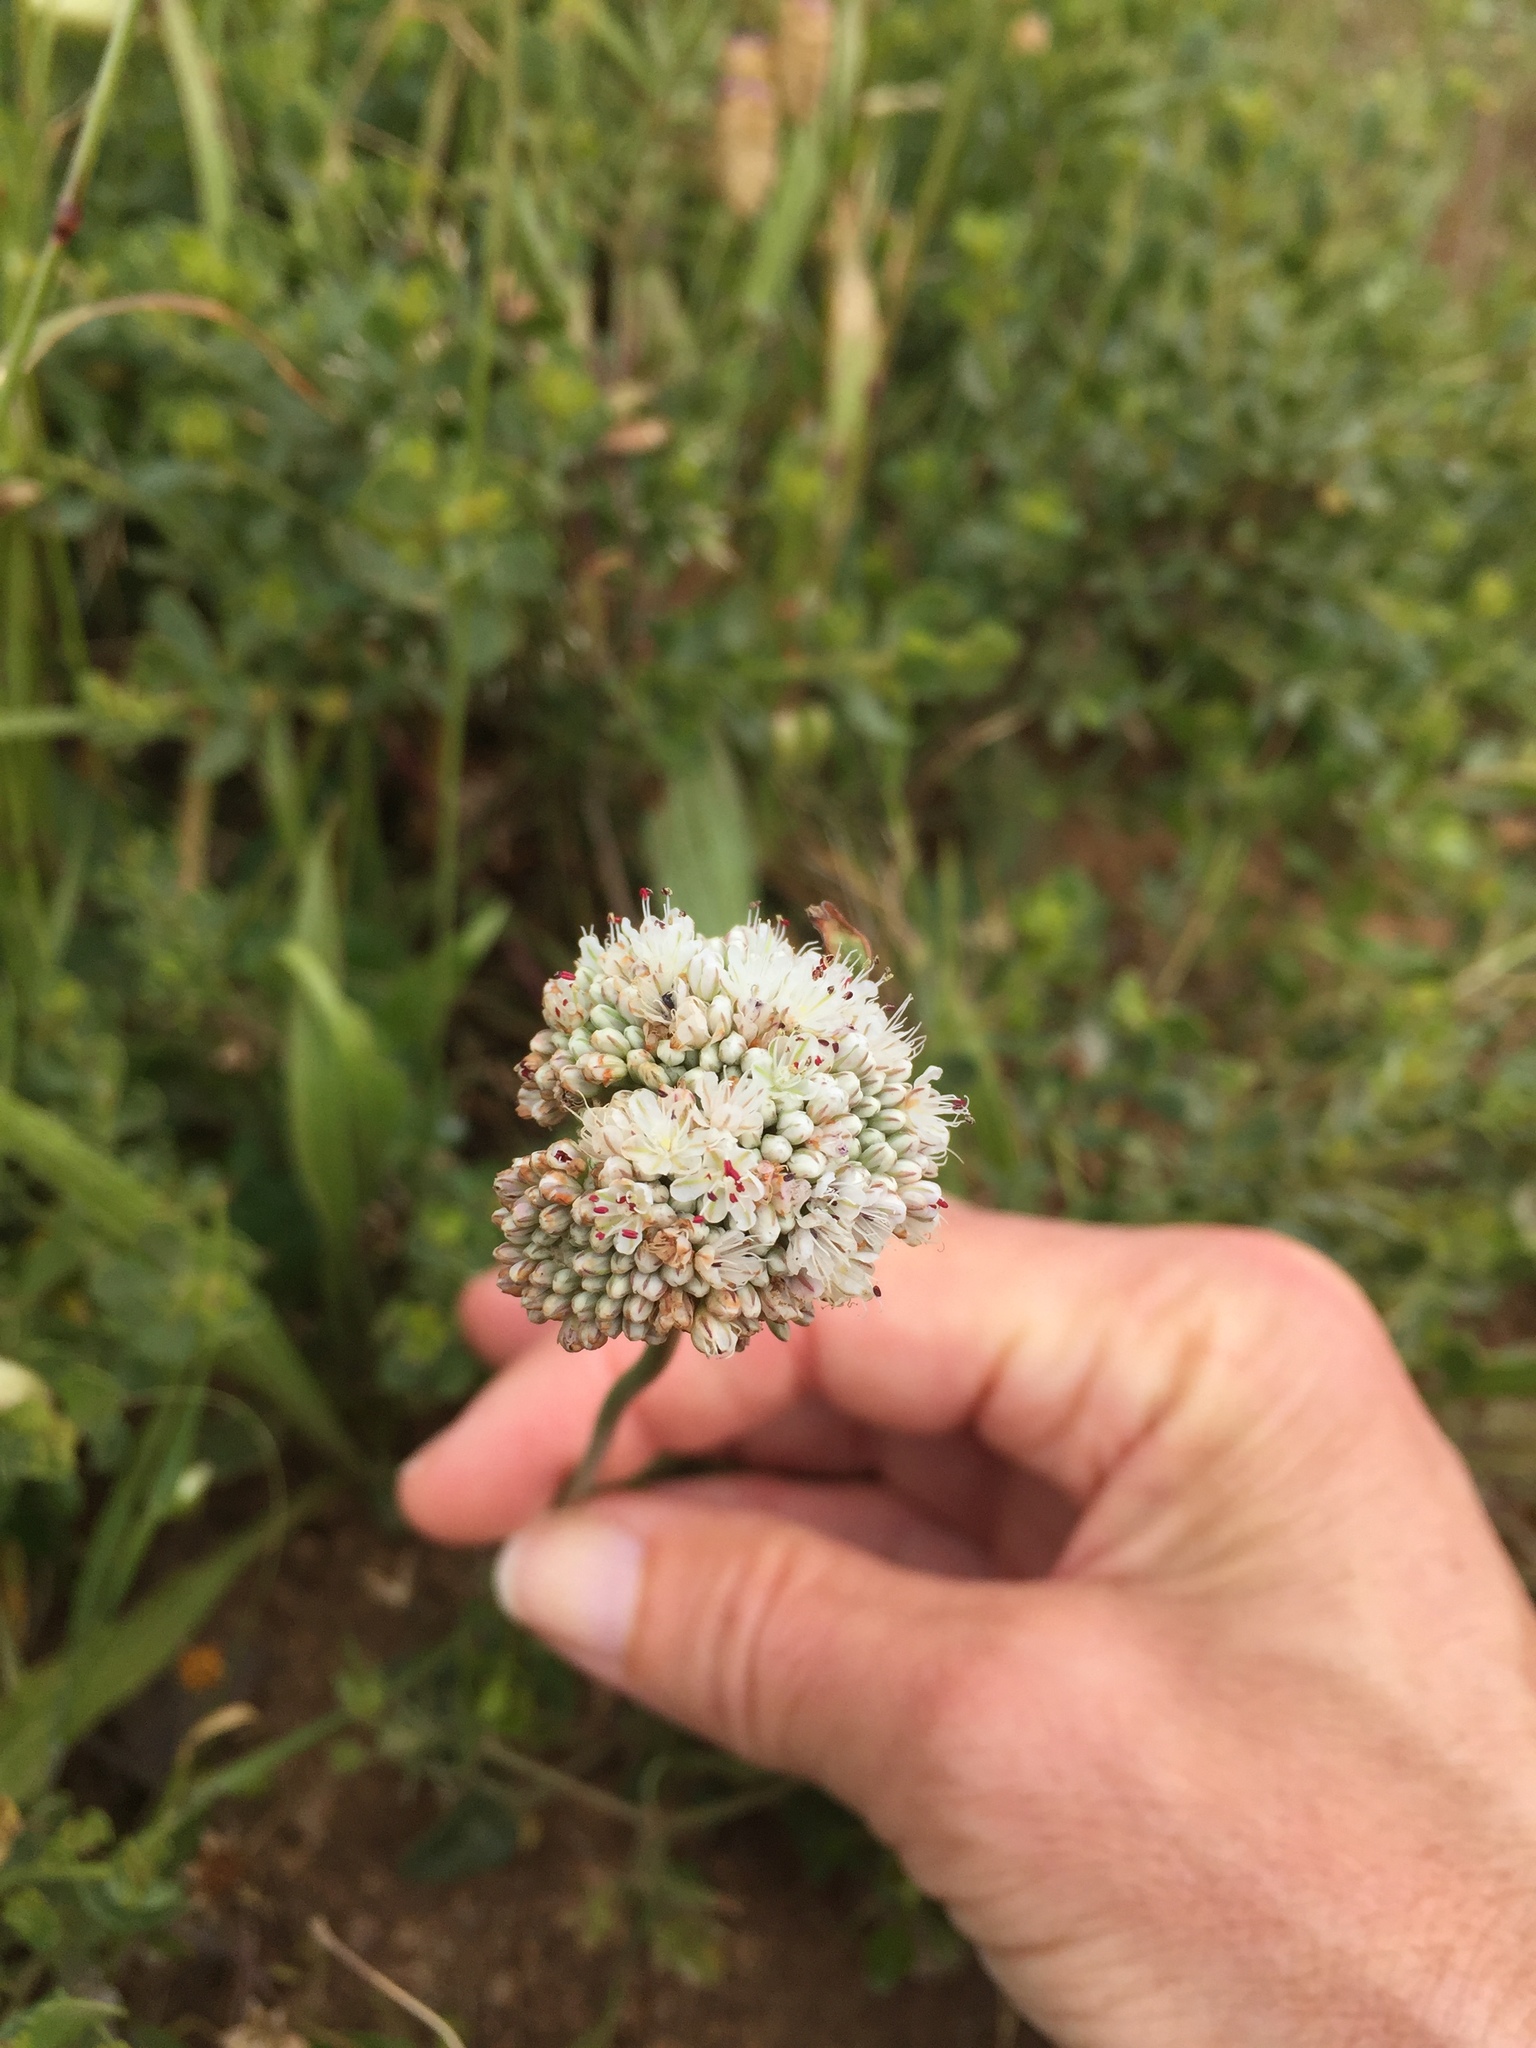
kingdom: Plantae
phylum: Tracheophyta
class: Magnoliopsida
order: Caryophyllales
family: Polygonaceae
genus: Eriogonum
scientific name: Eriogonum latifolium
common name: Seaside wild buckwheat
